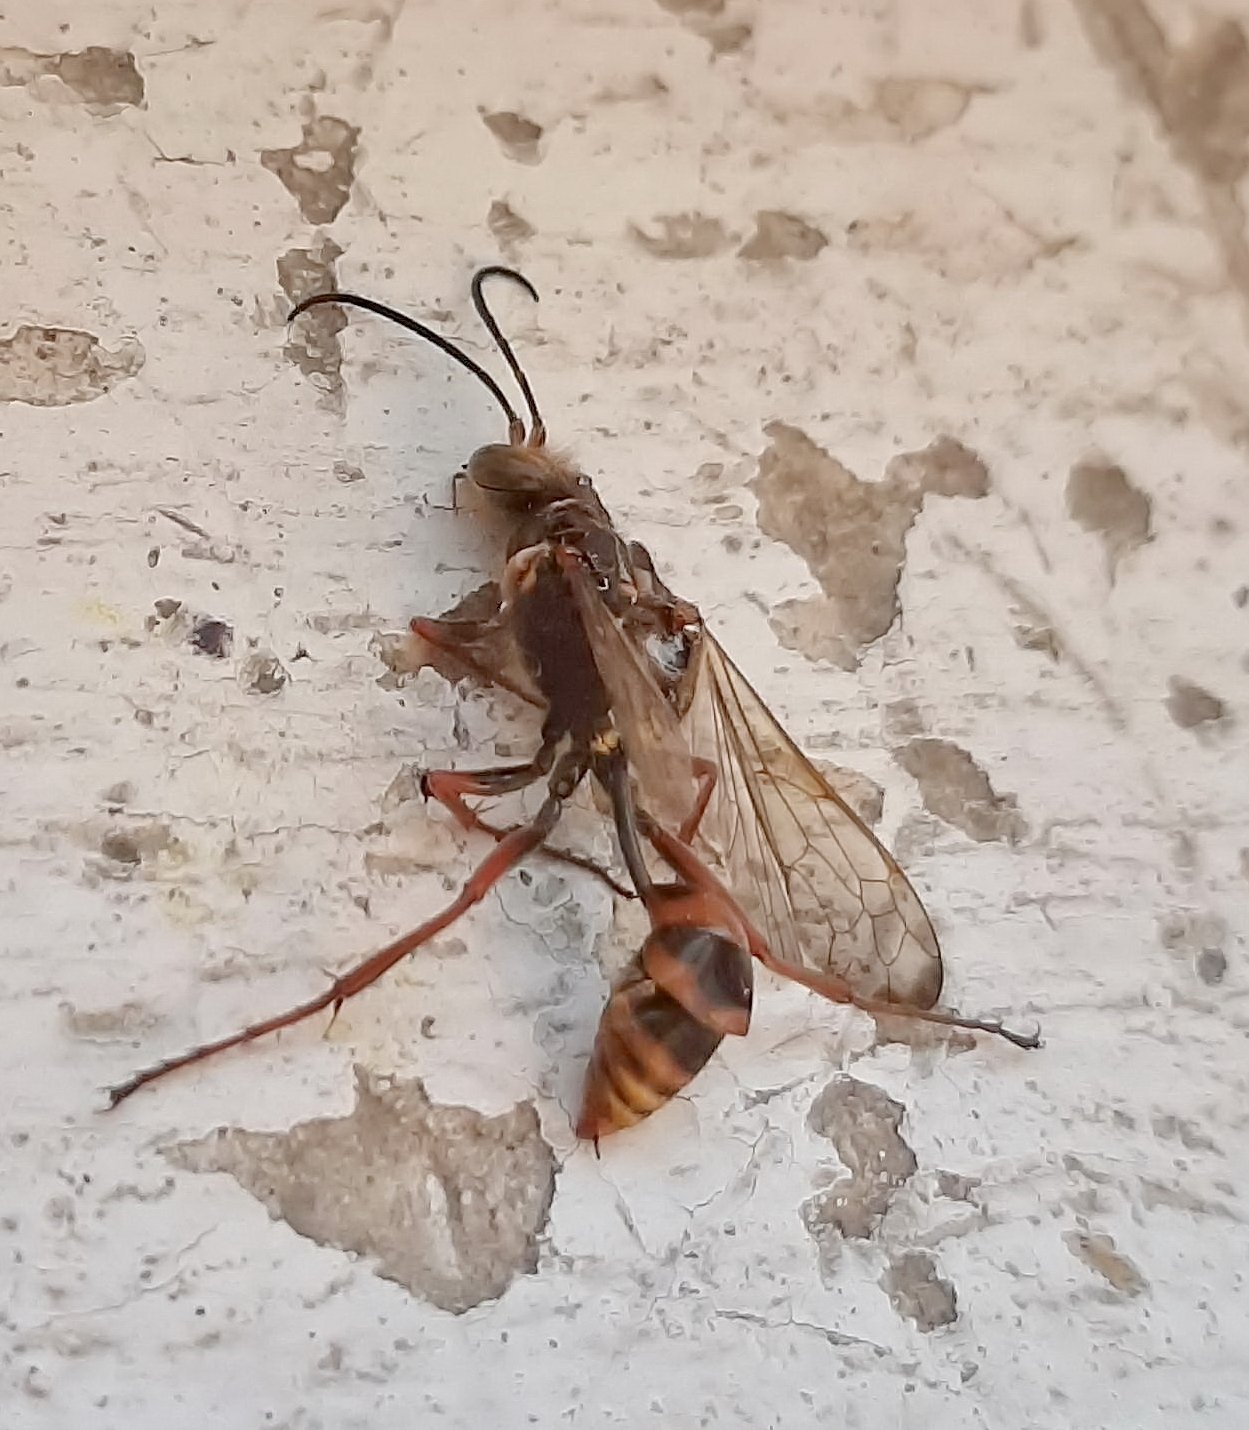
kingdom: Animalia
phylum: Arthropoda
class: Insecta
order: Hymenoptera
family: Sphecidae
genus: Sceliphron
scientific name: Sceliphron curvatum
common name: Pèlopèe
